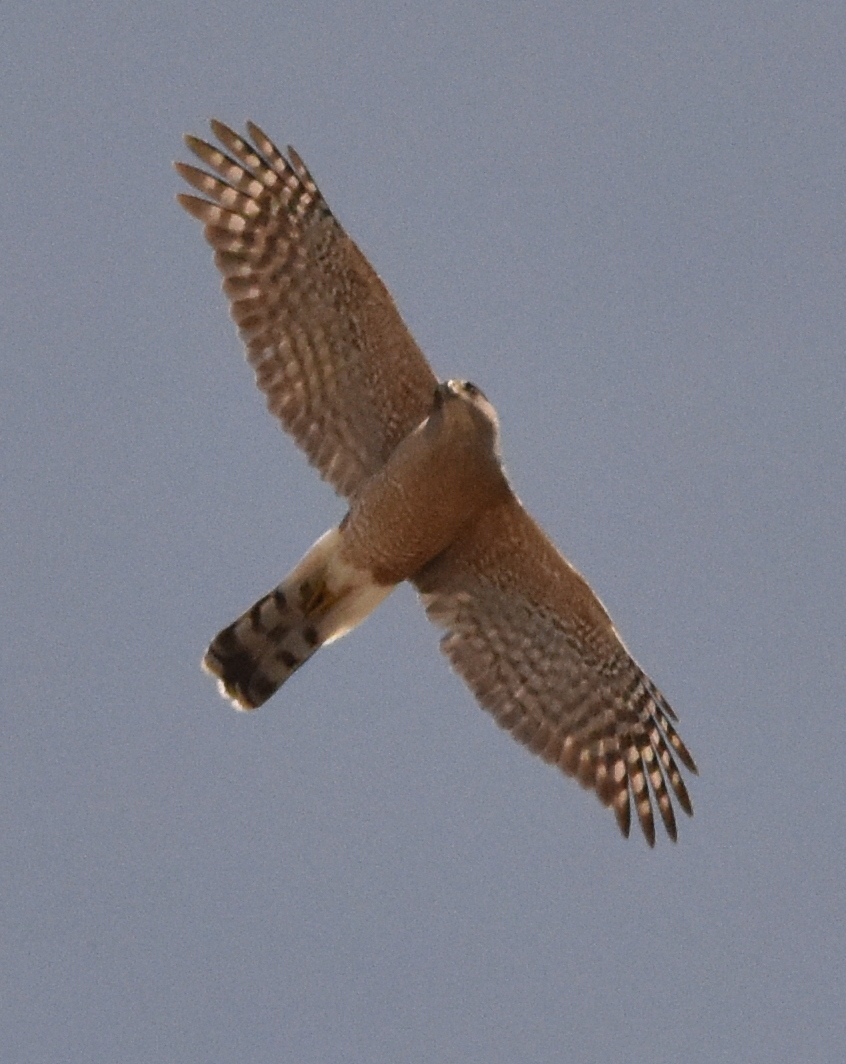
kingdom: Animalia
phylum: Chordata
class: Aves
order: Accipitriformes
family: Accipitridae
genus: Accipiter
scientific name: Accipiter cooperii
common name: Cooper's hawk
